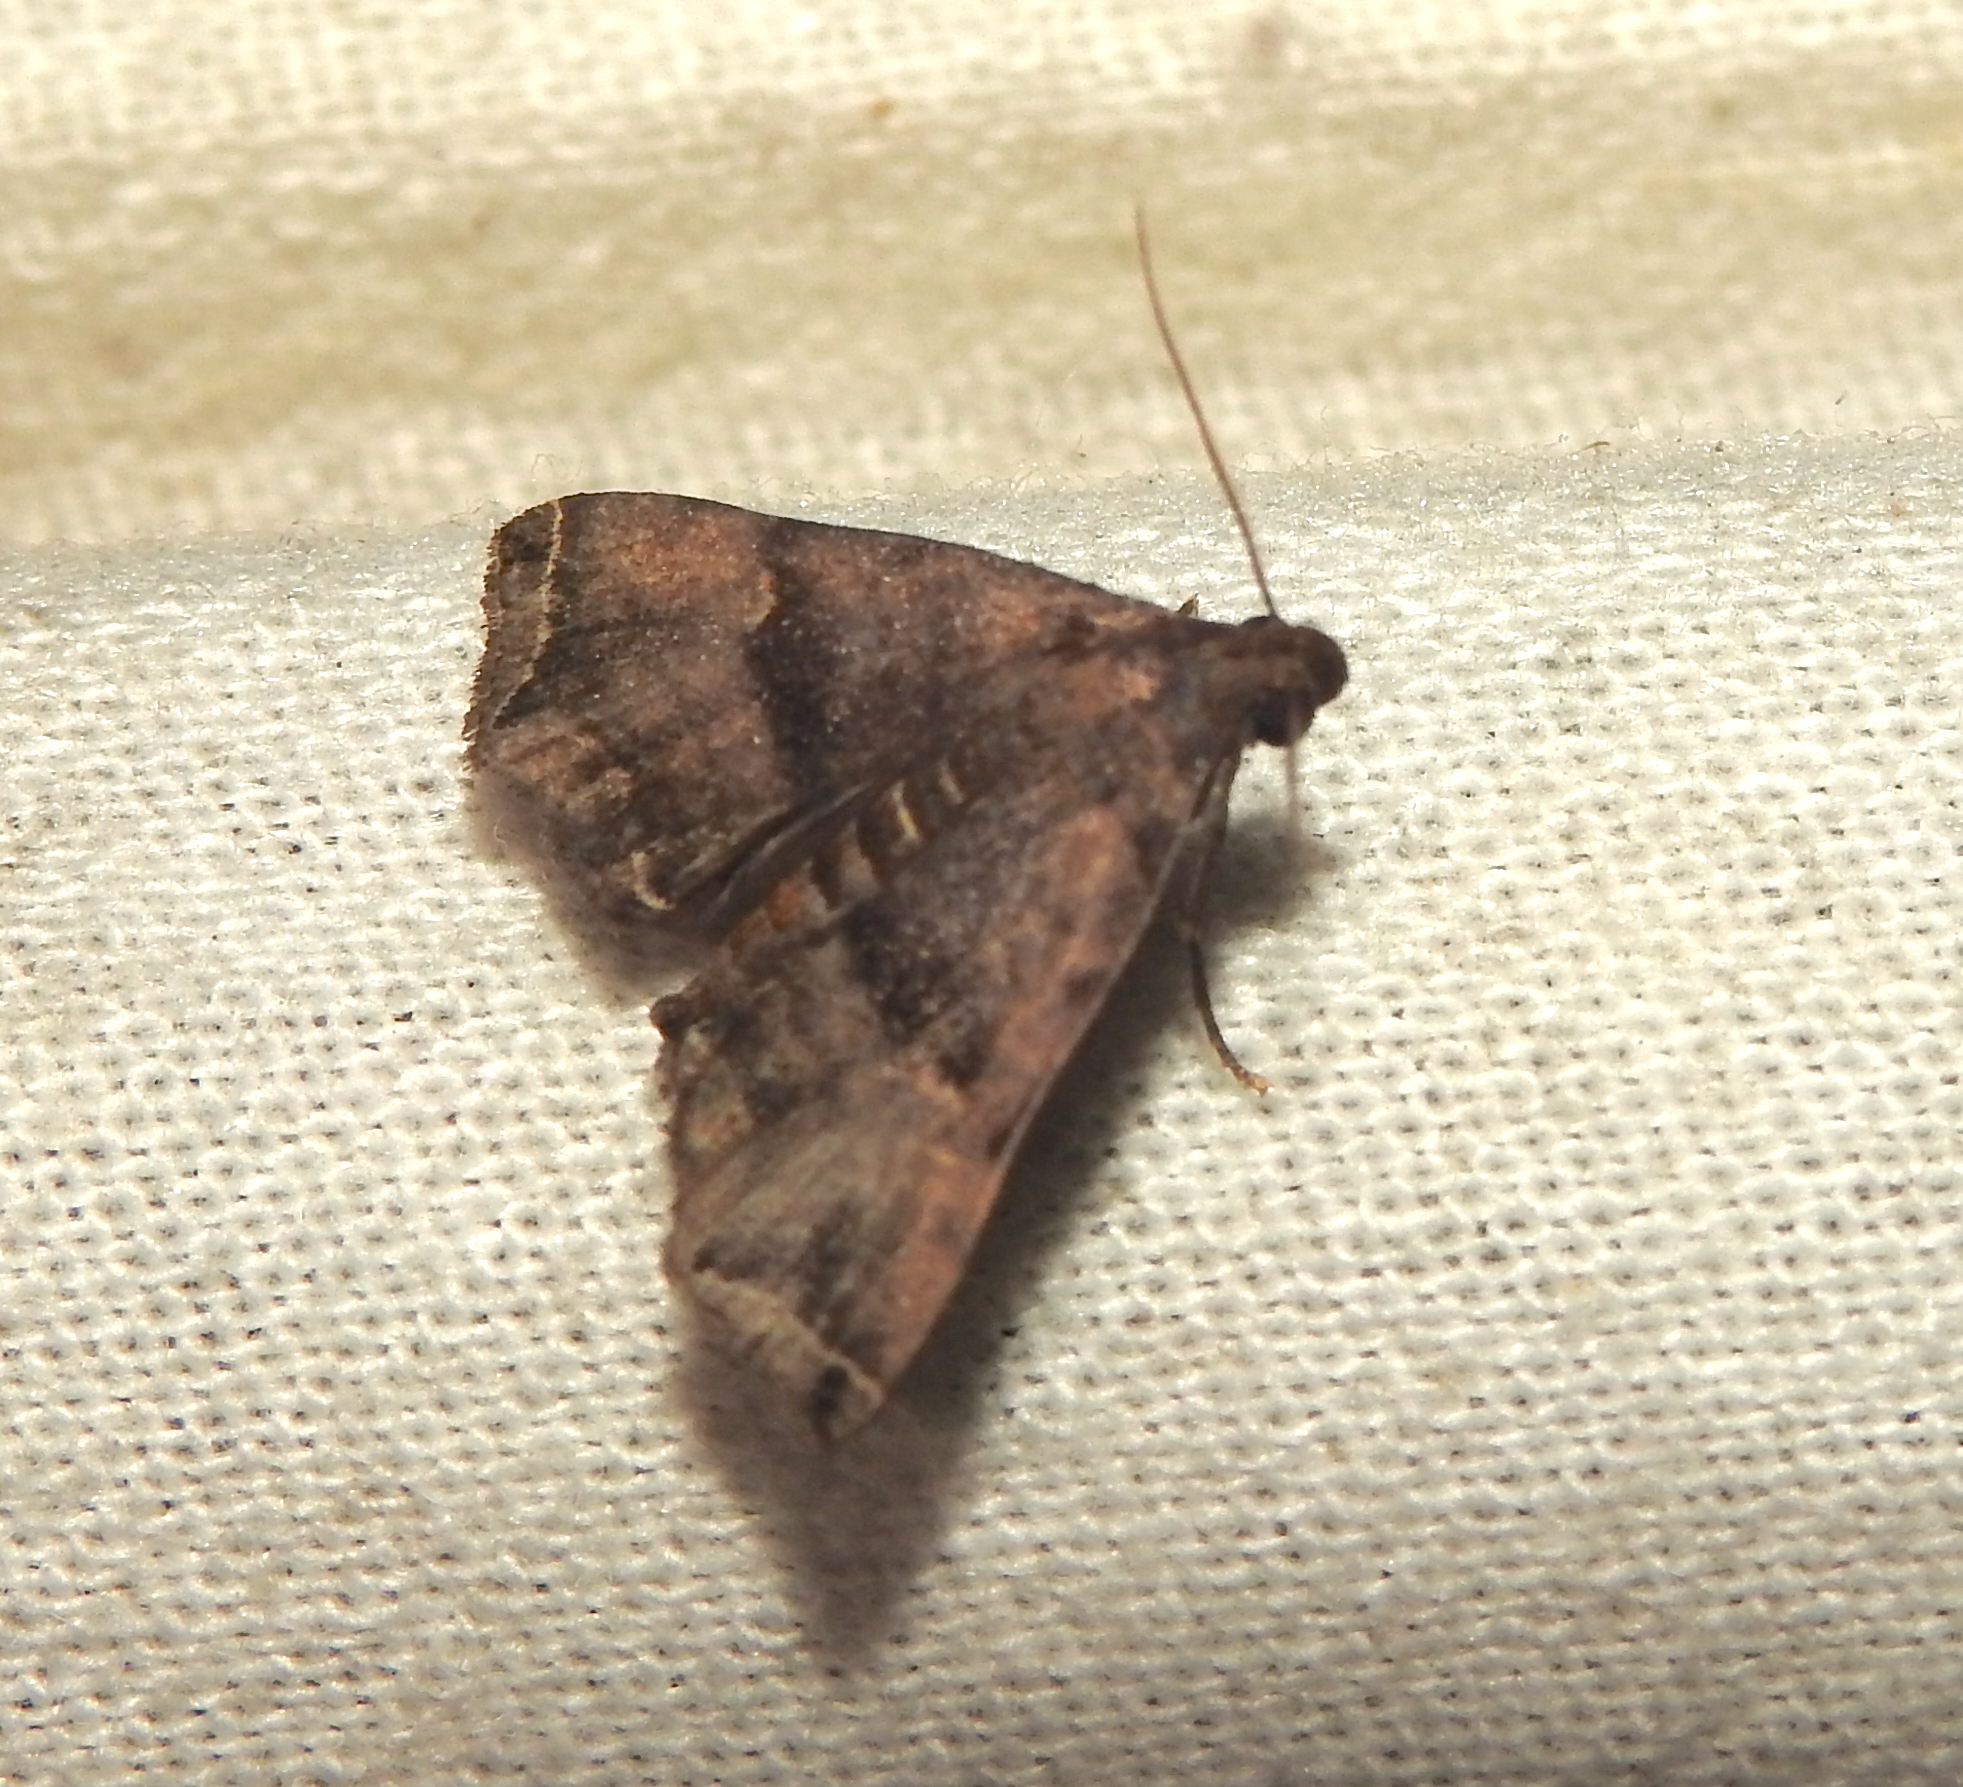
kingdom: Animalia
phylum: Arthropoda
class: Insecta
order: Lepidoptera
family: Erebidae
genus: Polypogon
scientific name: Polypogon biasalis
